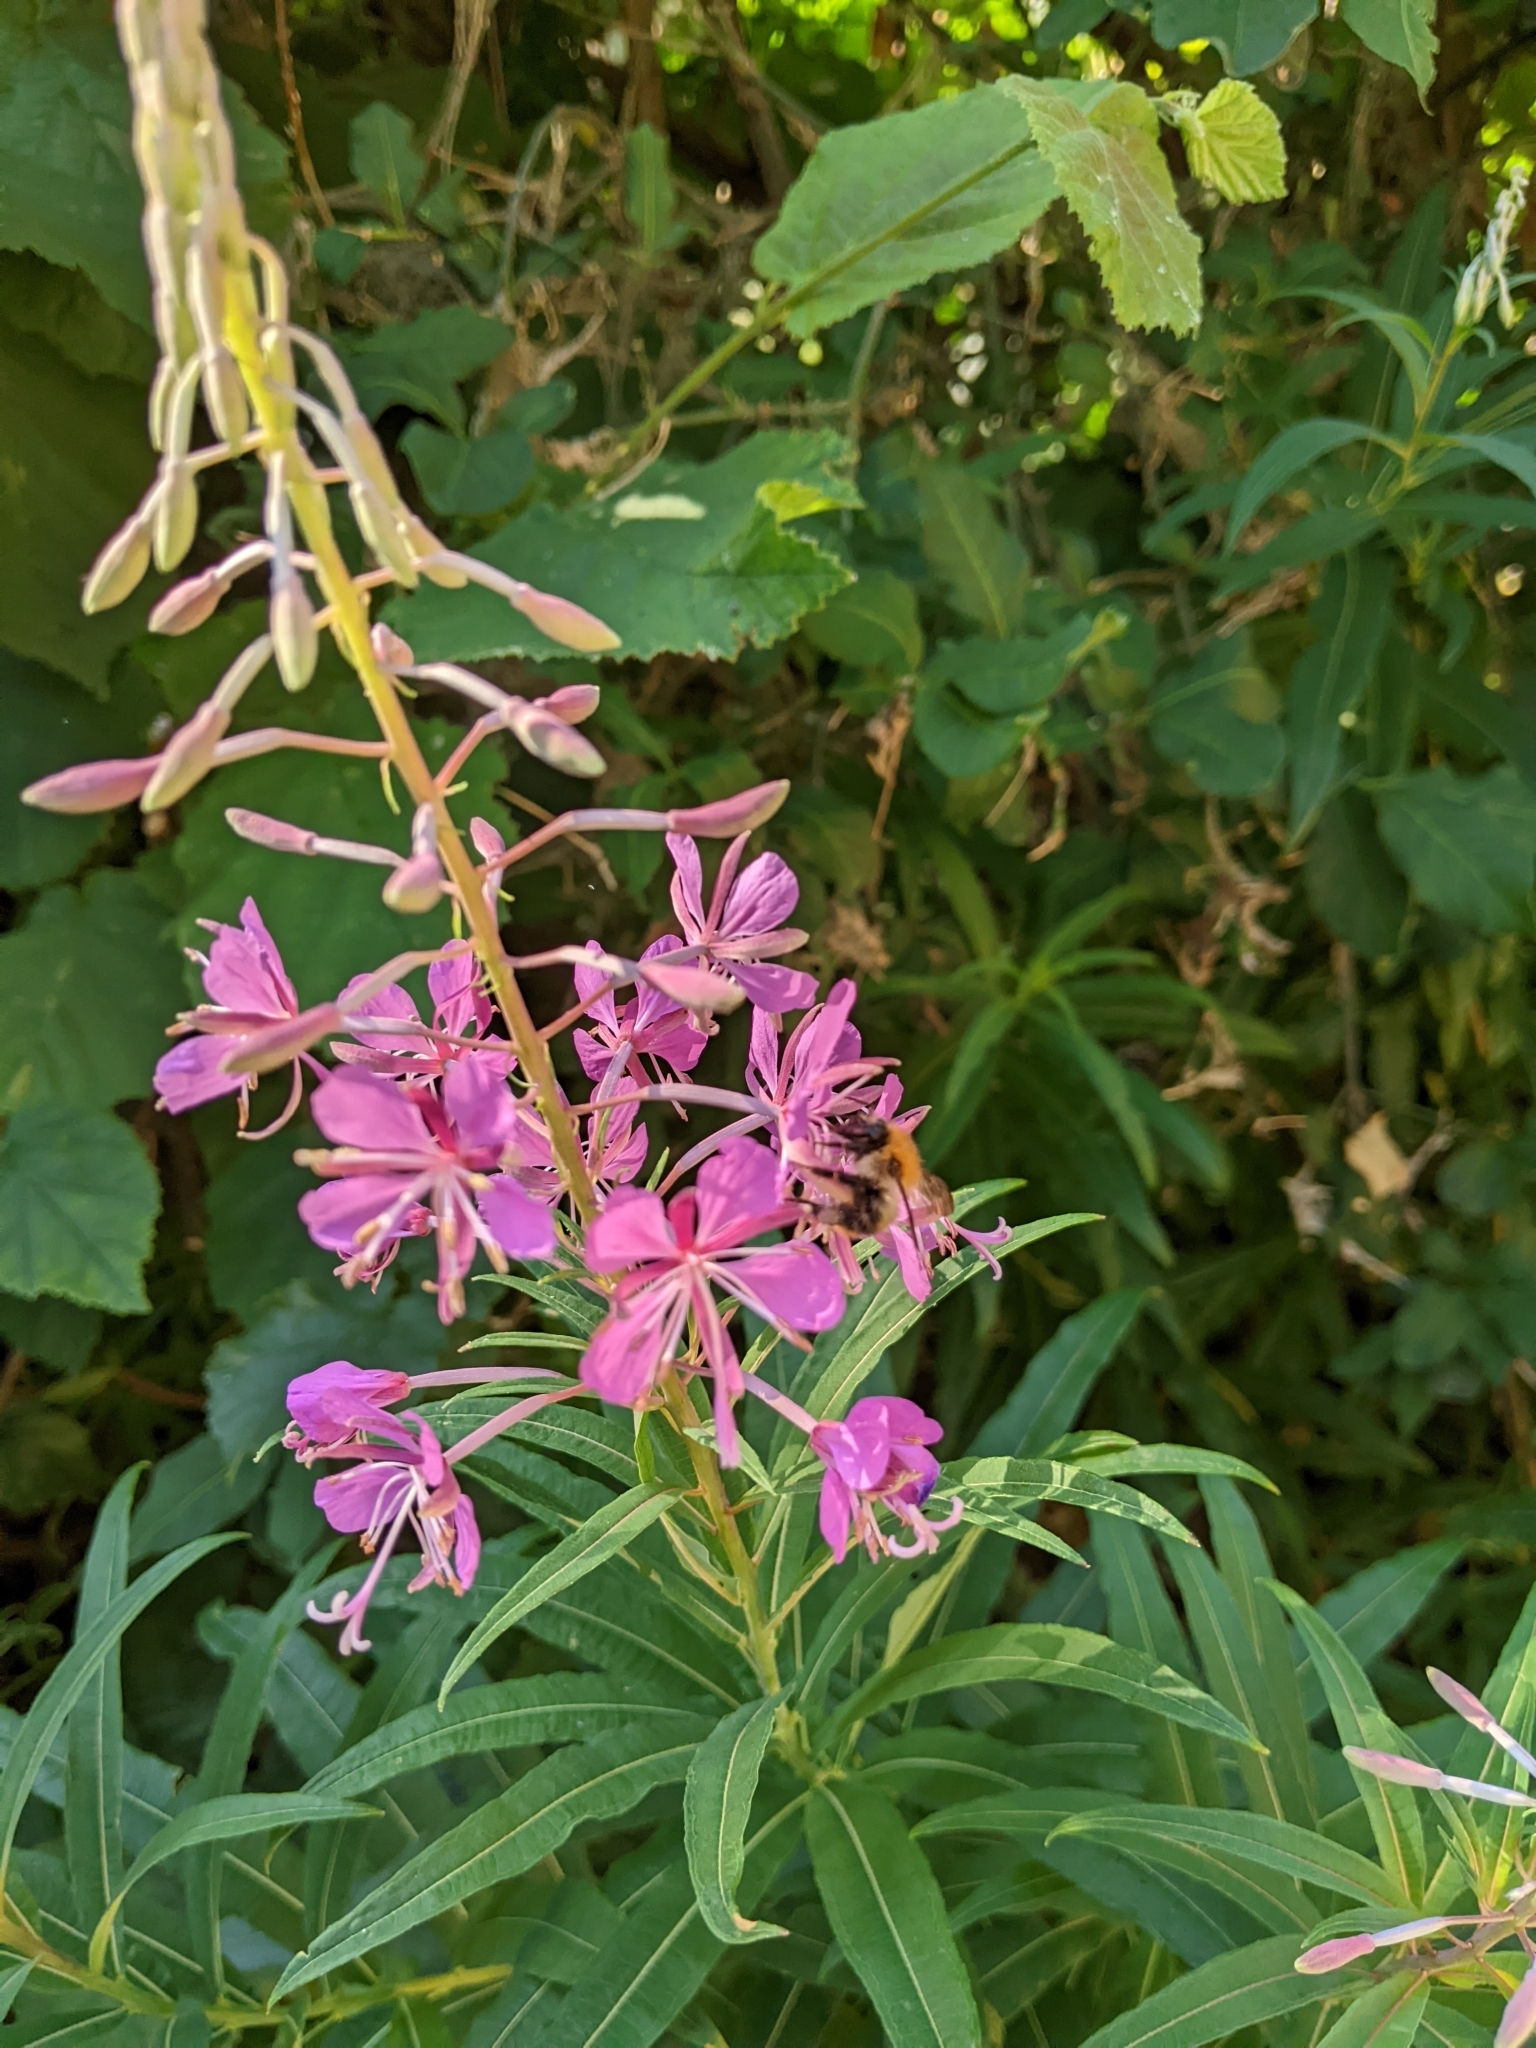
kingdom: Plantae
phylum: Tracheophyta
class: Magnoliopsida
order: Myrtales
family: Onagraceae
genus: Chamaenerion
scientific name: Chamaenerion angustifolium
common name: Fireweed
